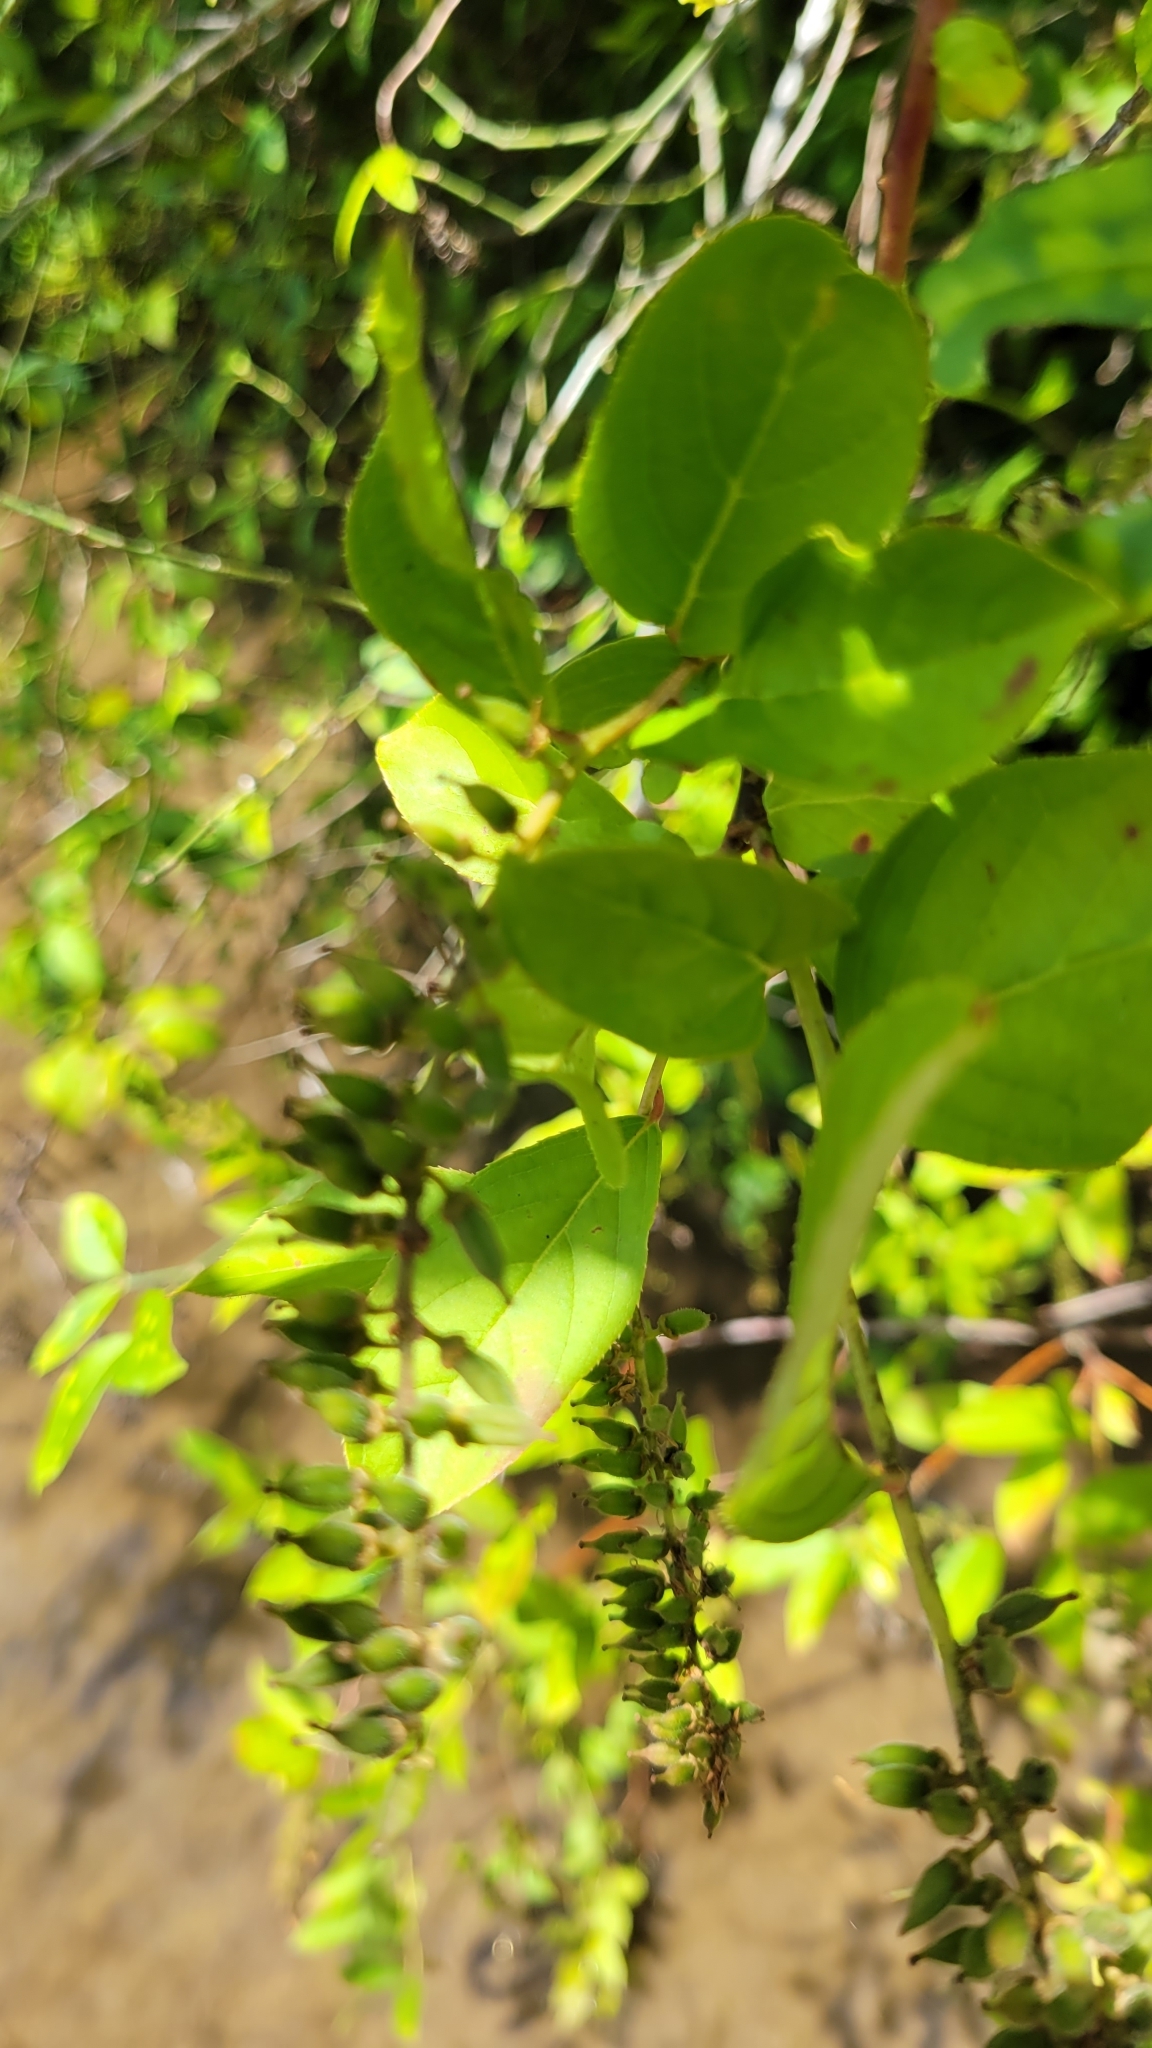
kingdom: Plantae
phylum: Tracheophyta
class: Magnoliopsida
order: Saxifragales
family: Iteaceae
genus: Itea
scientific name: Itea virginica
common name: Sweetspire
